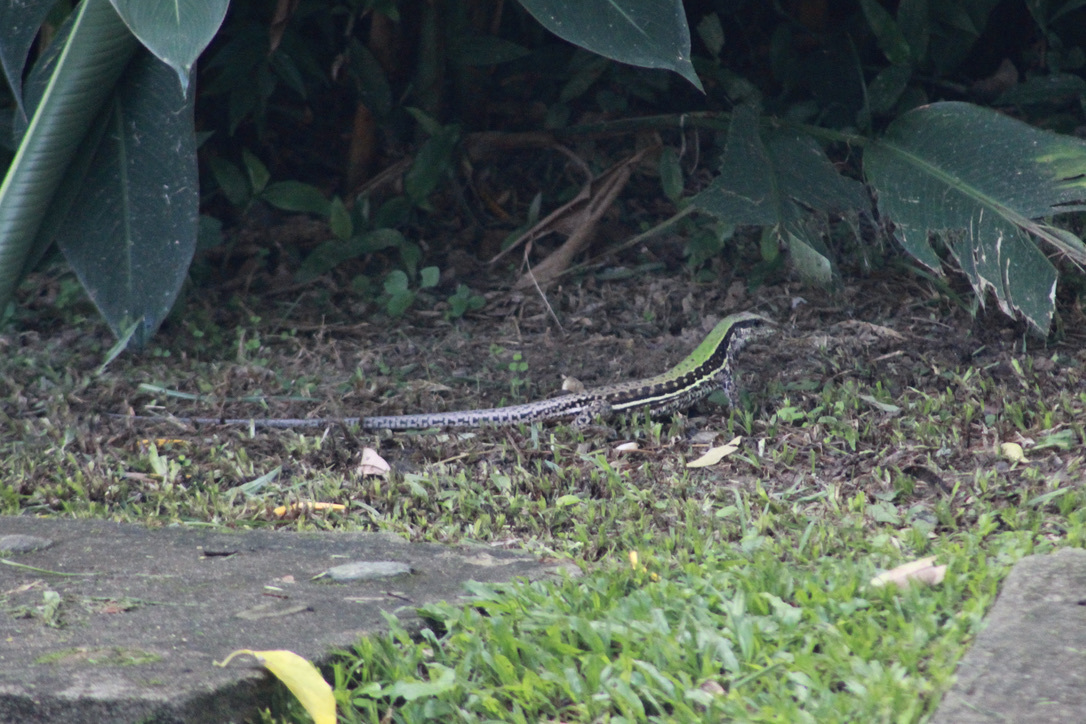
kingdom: Animalia
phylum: Chordata
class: Squamata
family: Teiidae
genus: Ameiva
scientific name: Ameiva atrigularis
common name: Venezuelan ameiva
